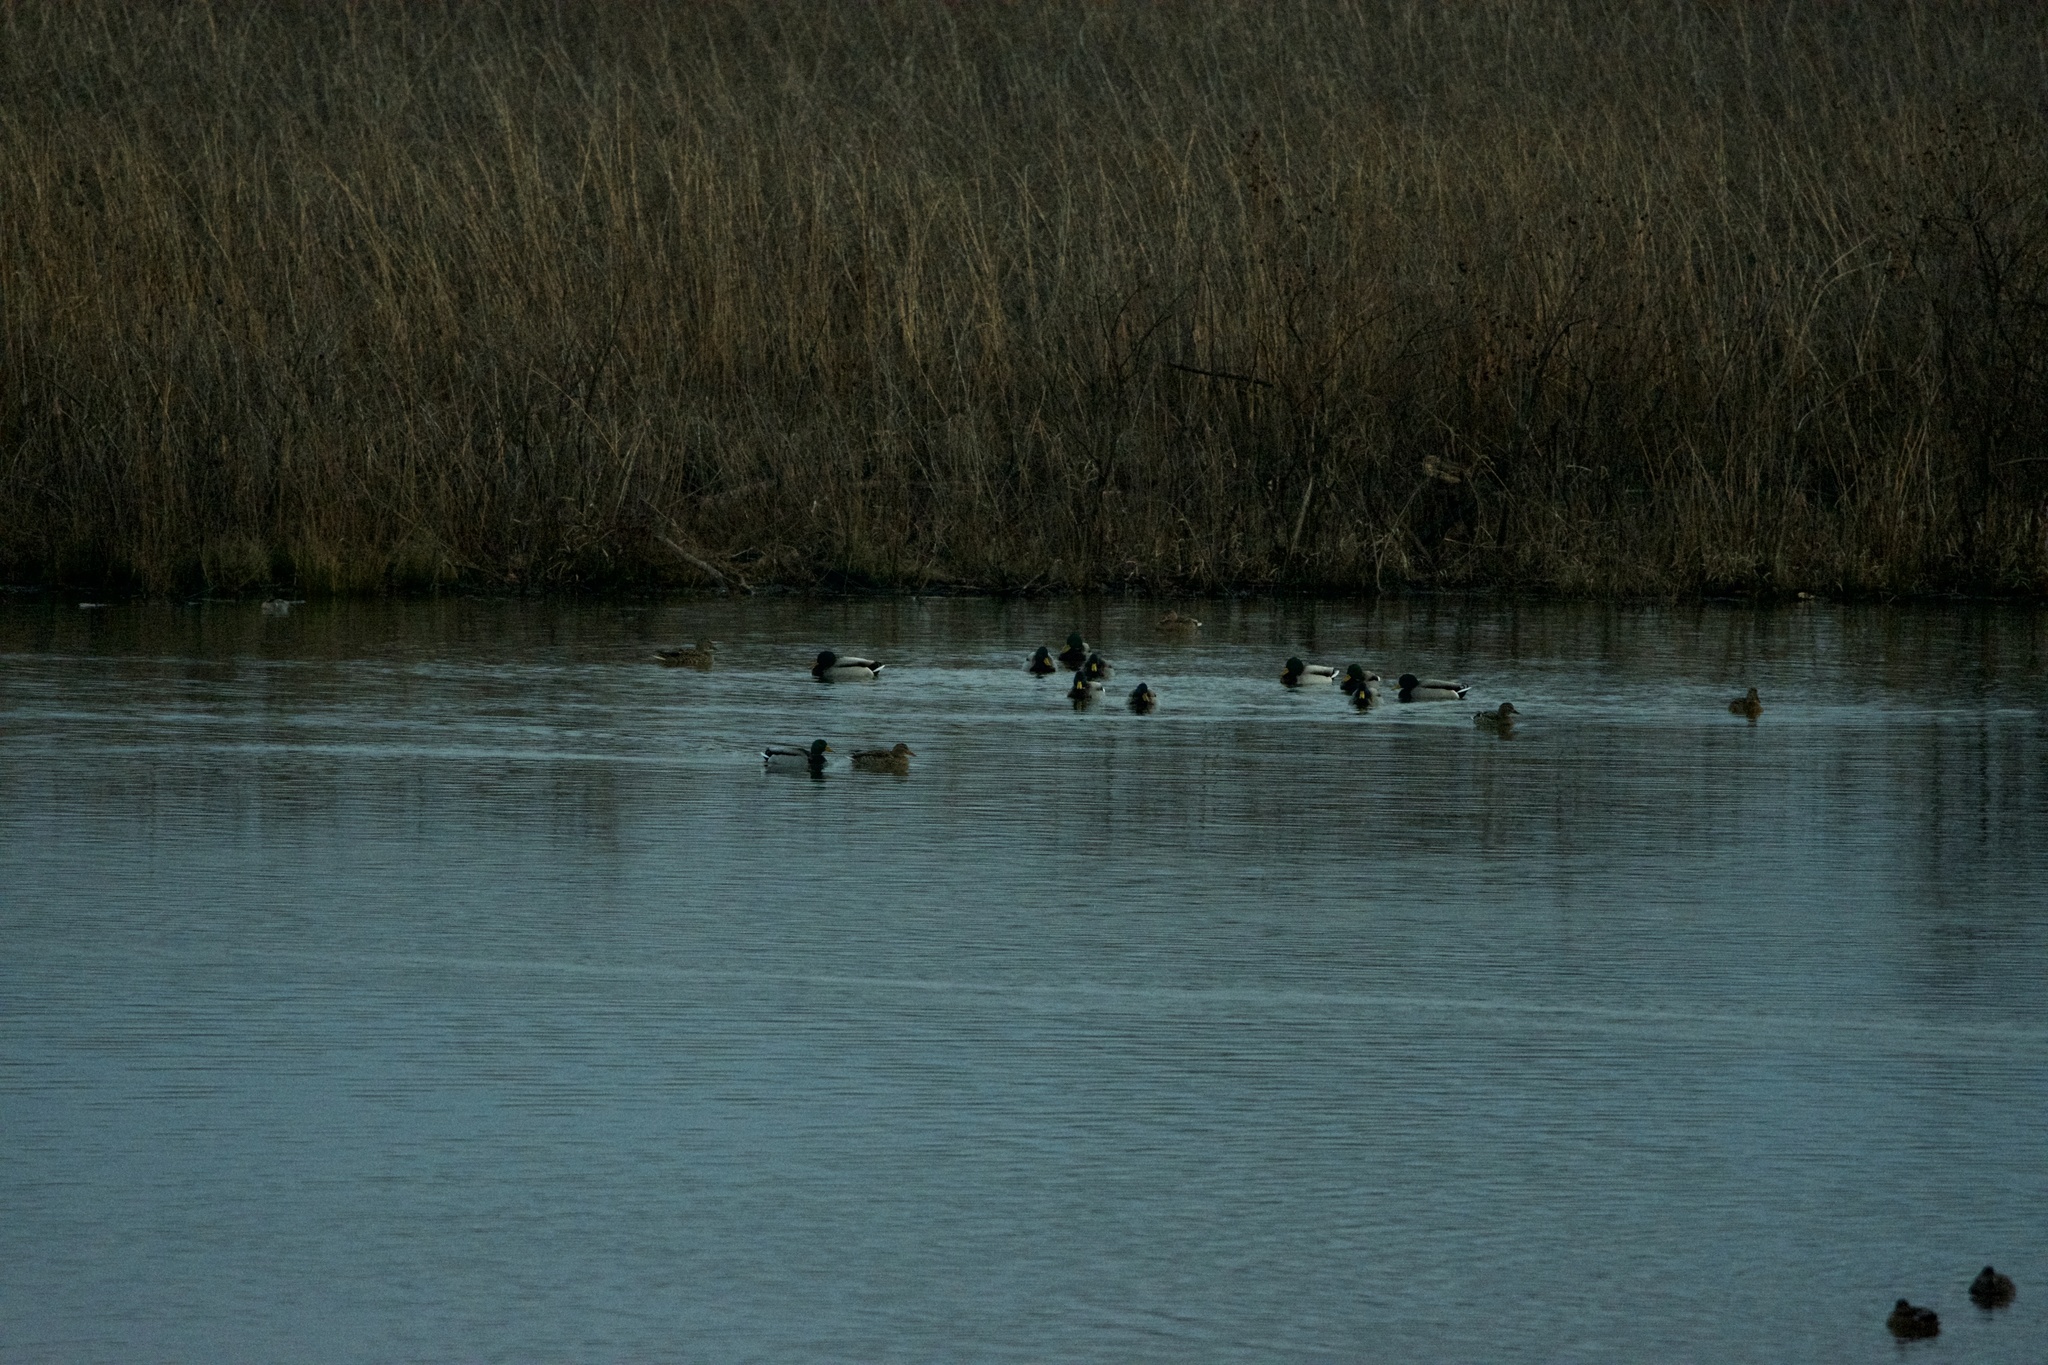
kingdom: Animalia
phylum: Chordata
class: Aves
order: Anseriformes
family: Anatidae
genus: Anas
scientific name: Anas platyrhynchos
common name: Mallard
